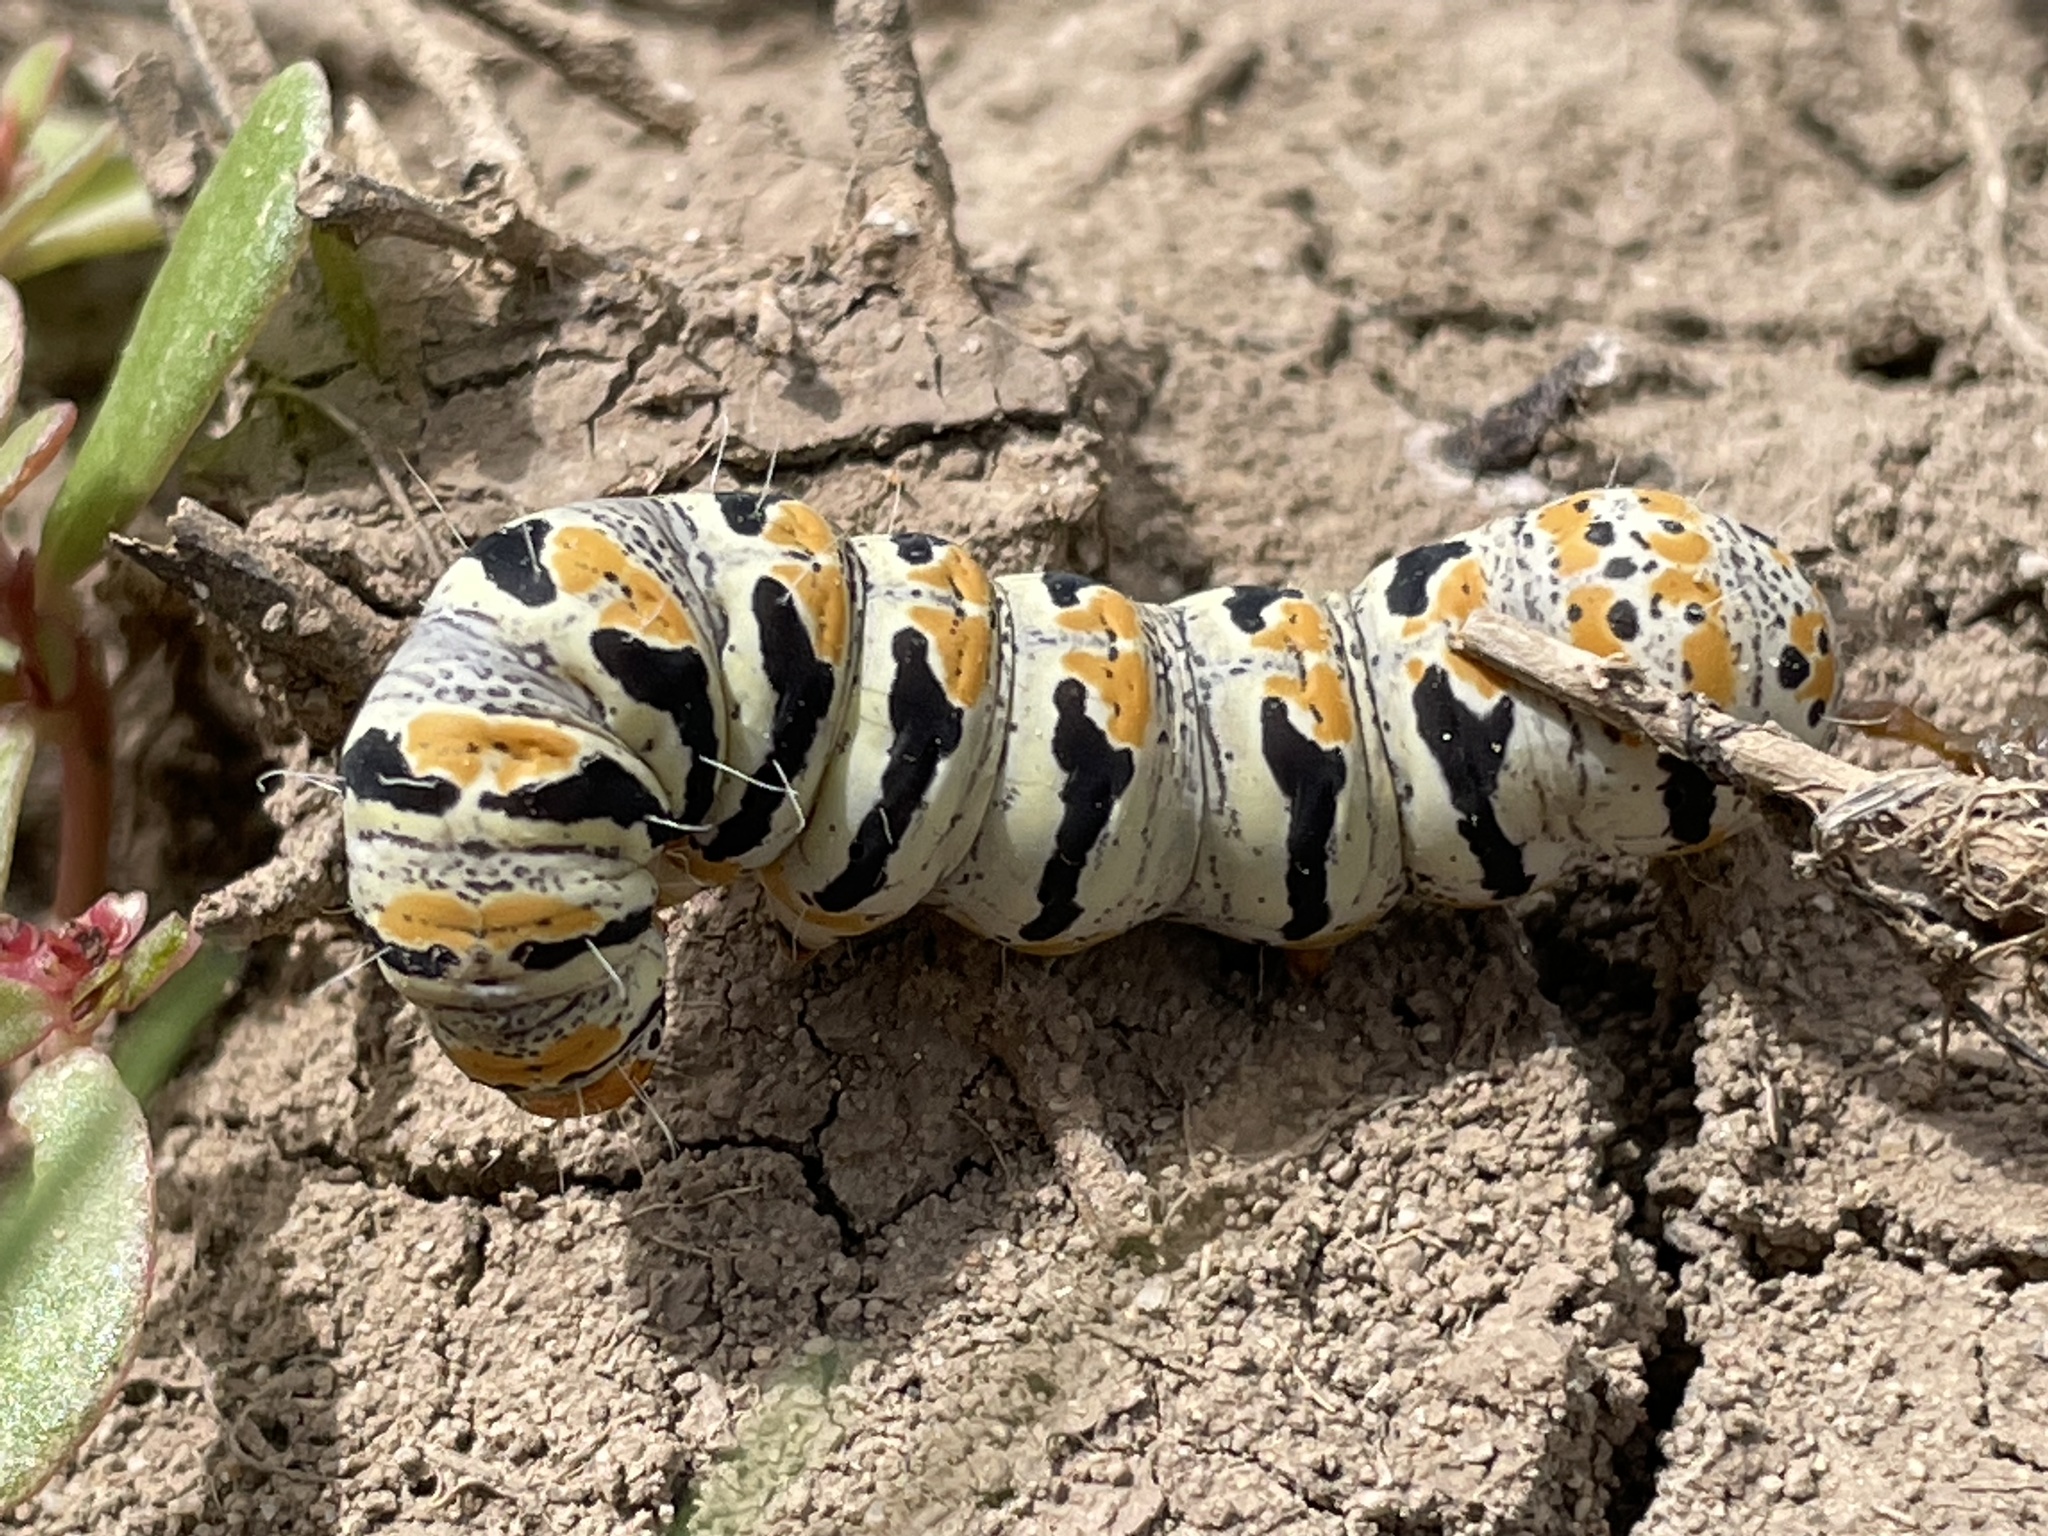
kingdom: Animalia
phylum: Arthropoda
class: Insecta
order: Lepidoptera
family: Noctuidae
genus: Euscirrhopterus
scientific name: Euscirrhopterus gloveri
